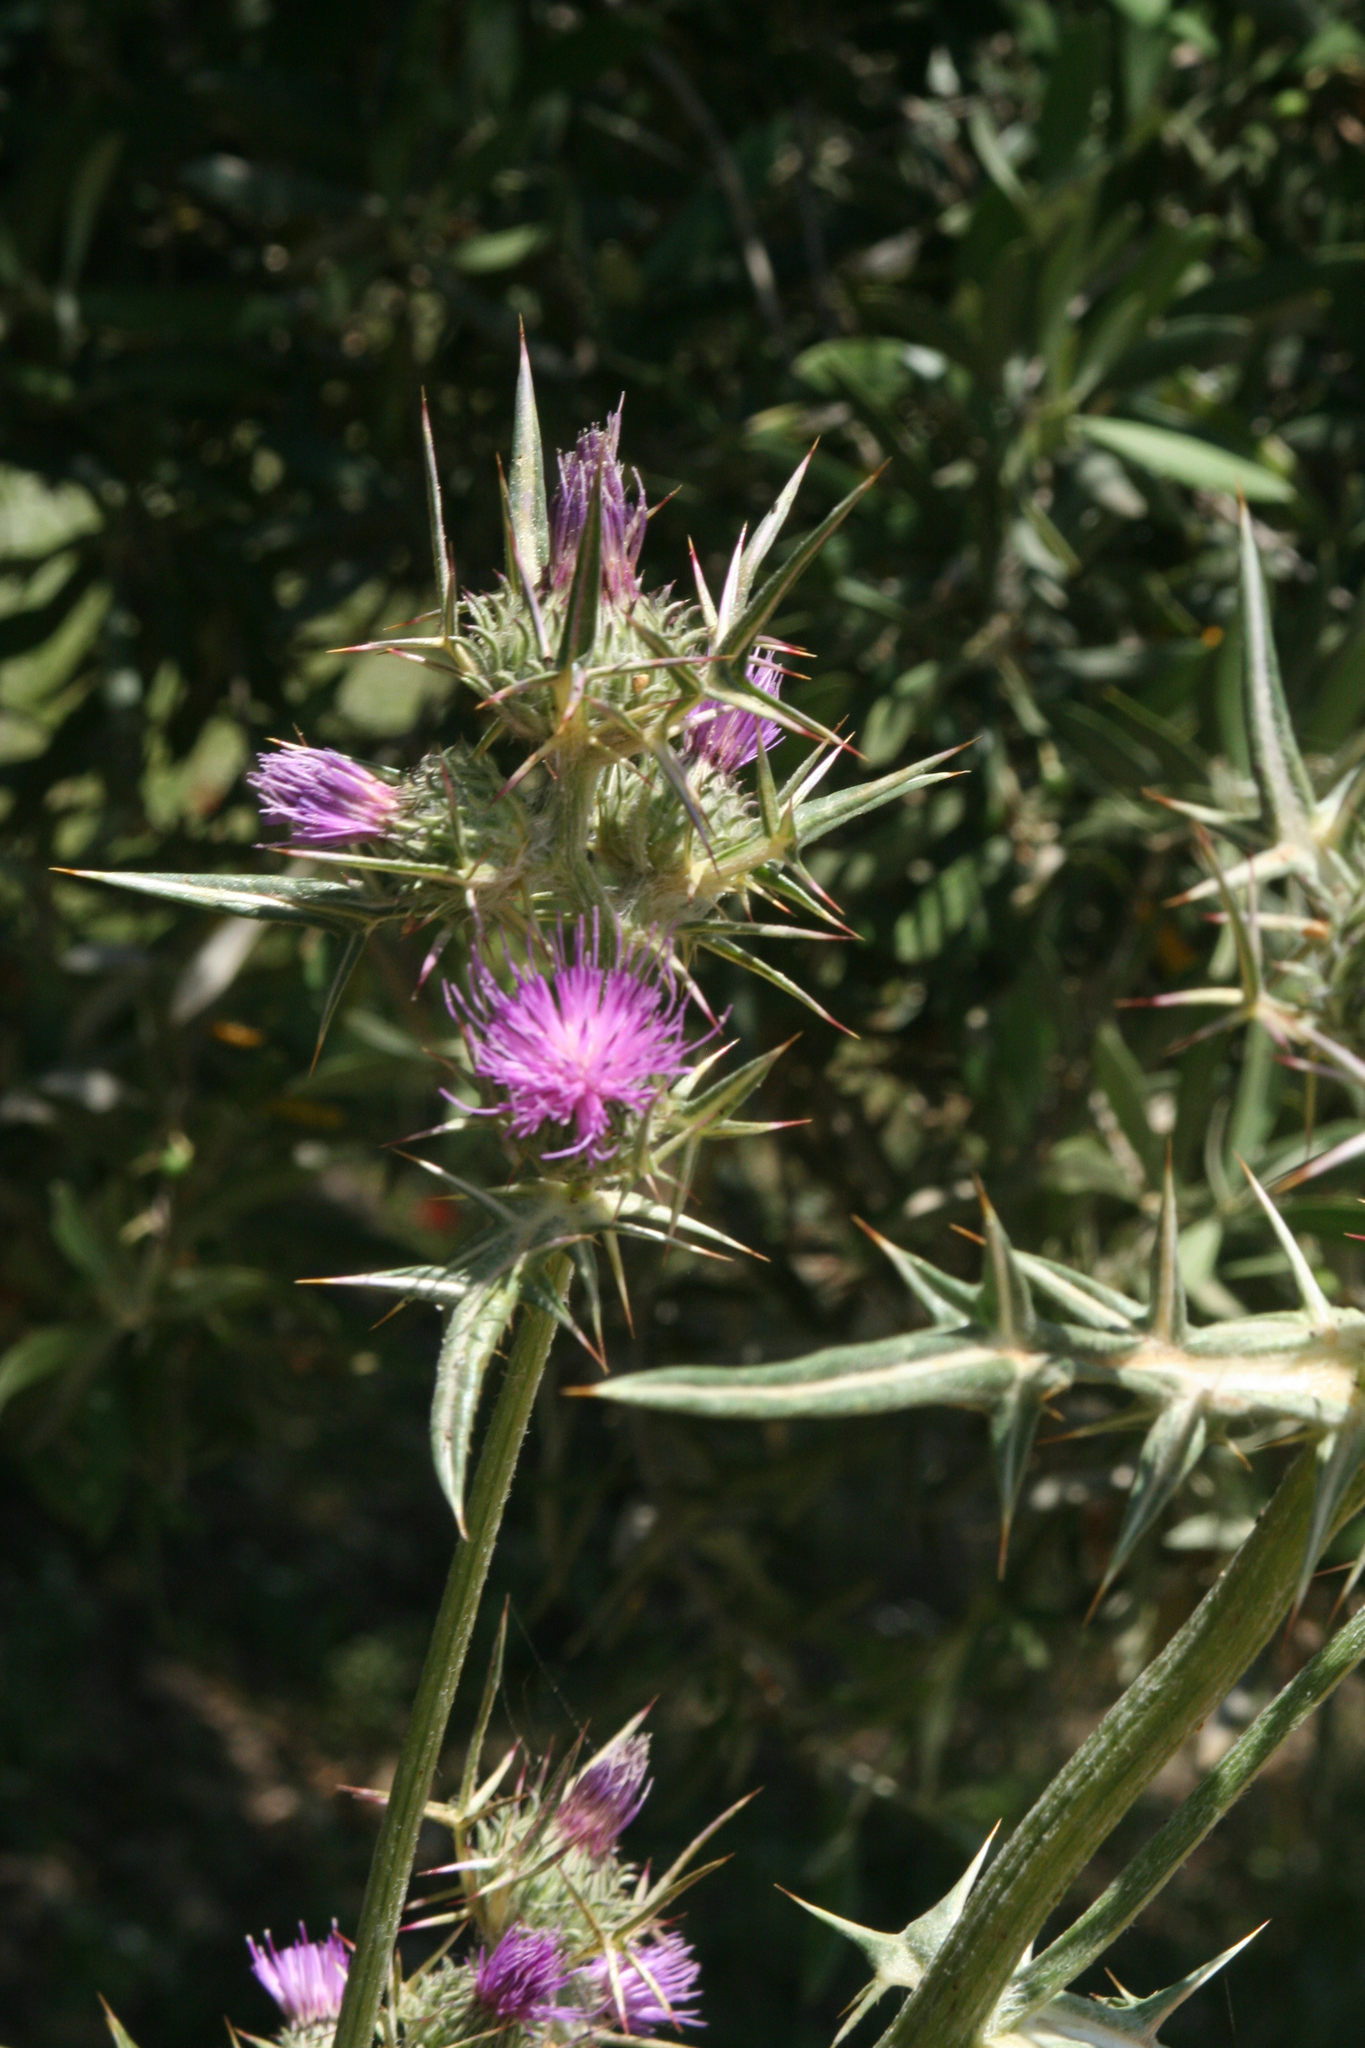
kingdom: Plantae
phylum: Tracheophyta
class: Magnoliopsida
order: Asterales
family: Asteraceae
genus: Notobasis
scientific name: Notobasis syriaca
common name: Syrian thistle
